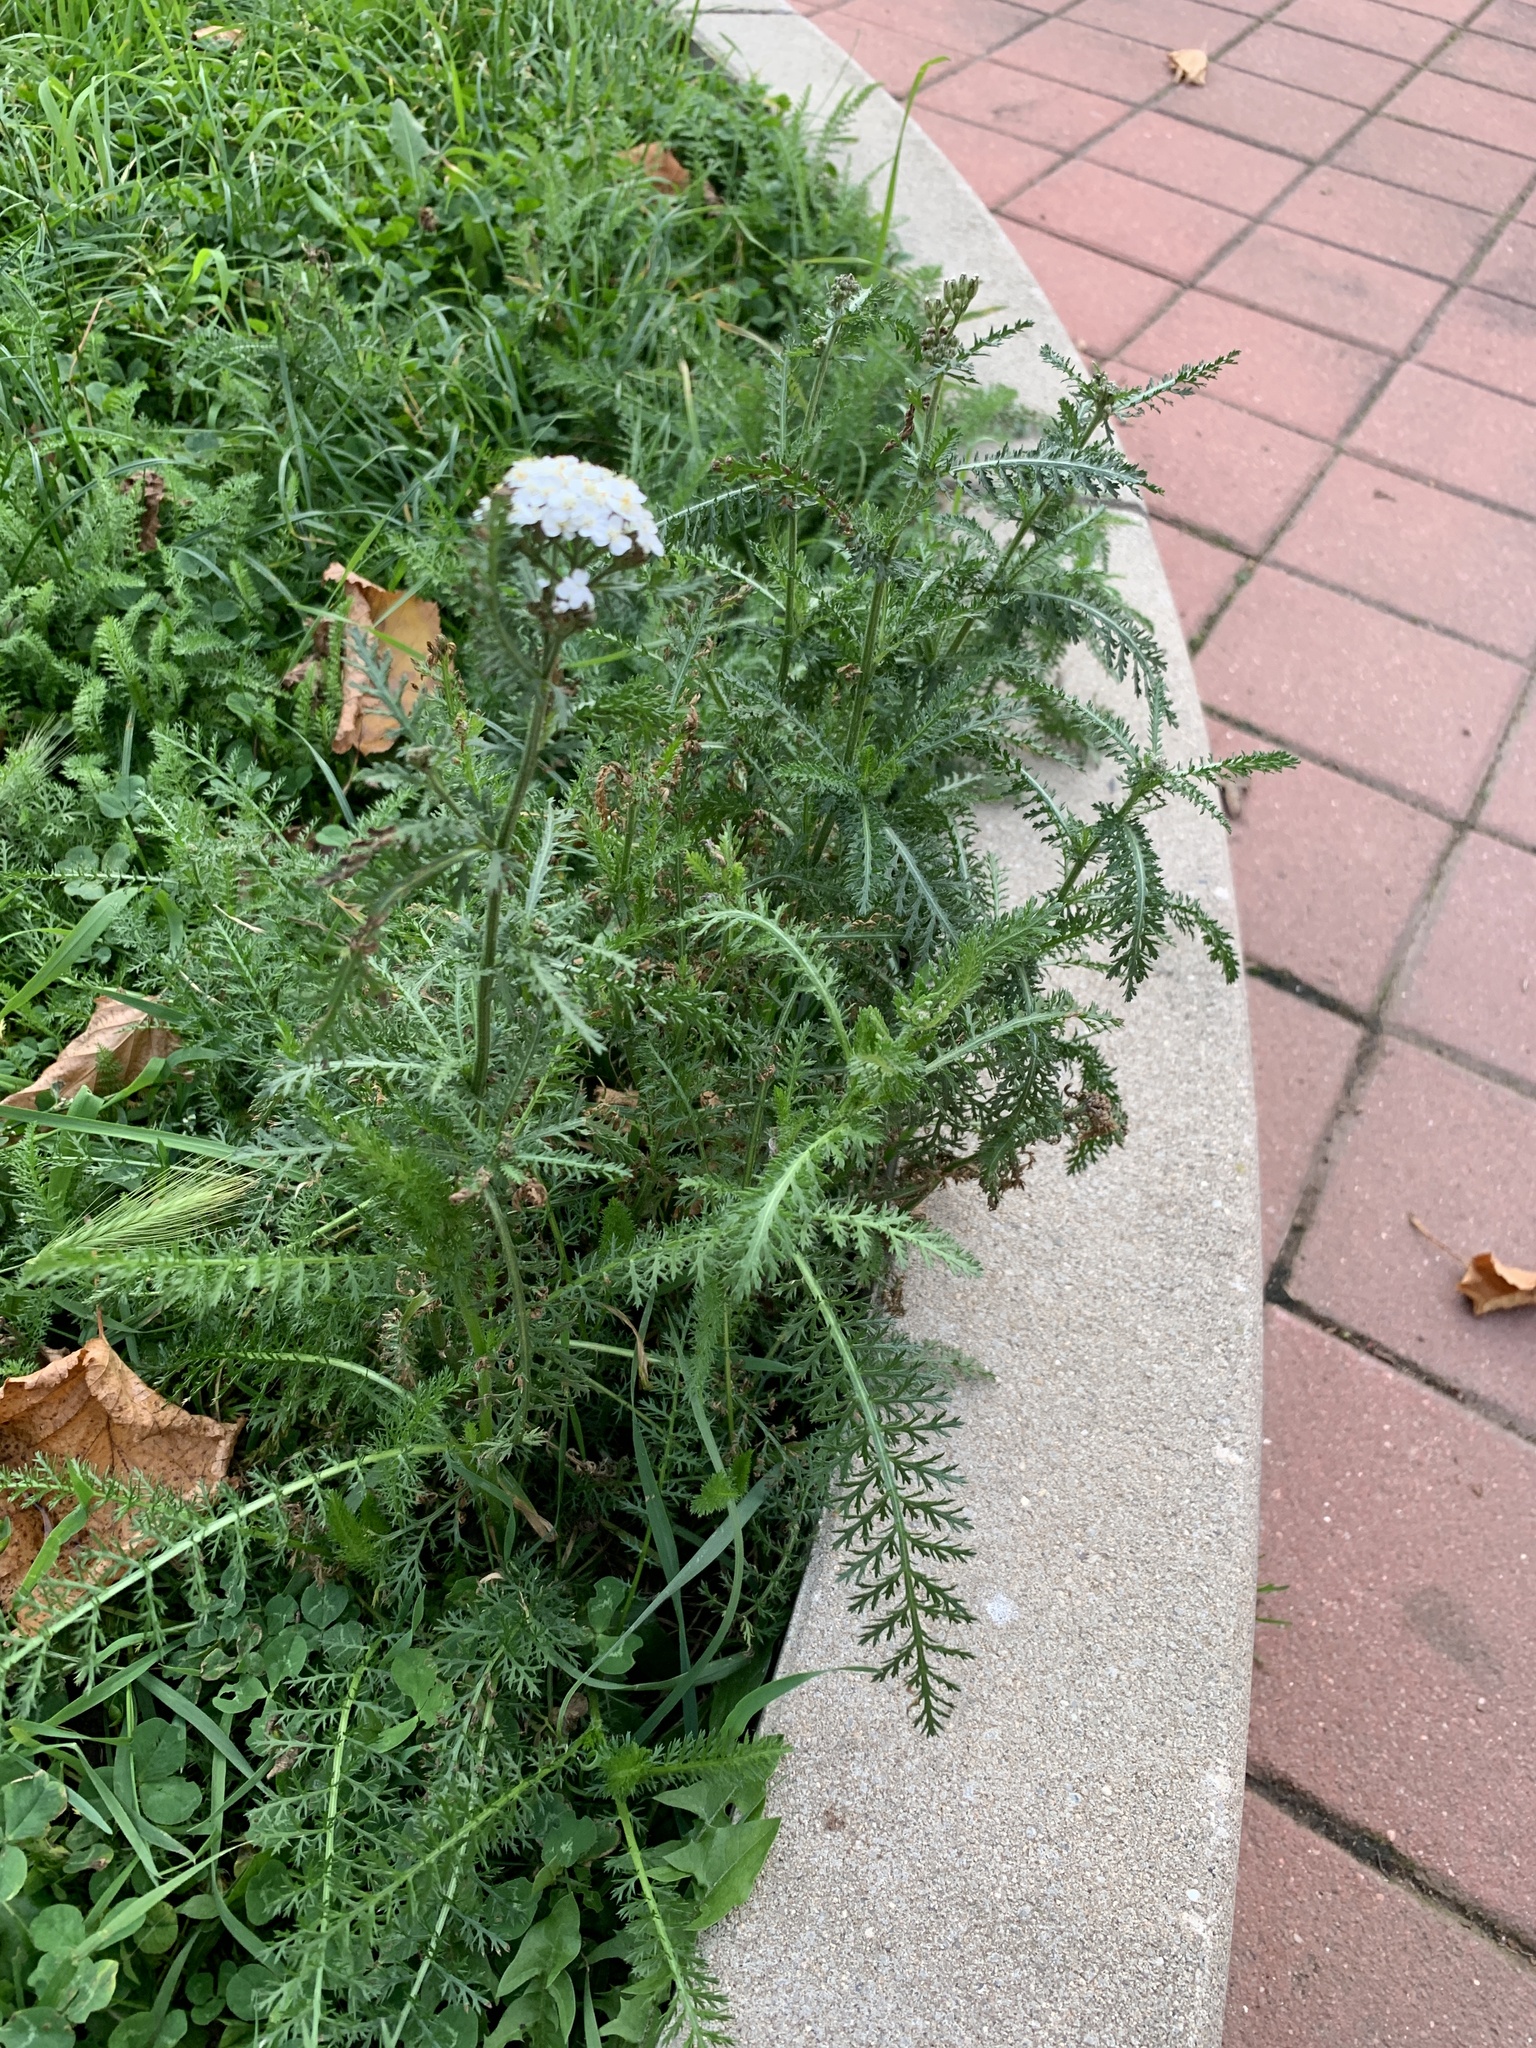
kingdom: Plantae
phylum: Tracheophyta
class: Magnoliopsida
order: Asterales
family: Asteraceae
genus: Achillea
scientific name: Achillea millefolium
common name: Yarrow
